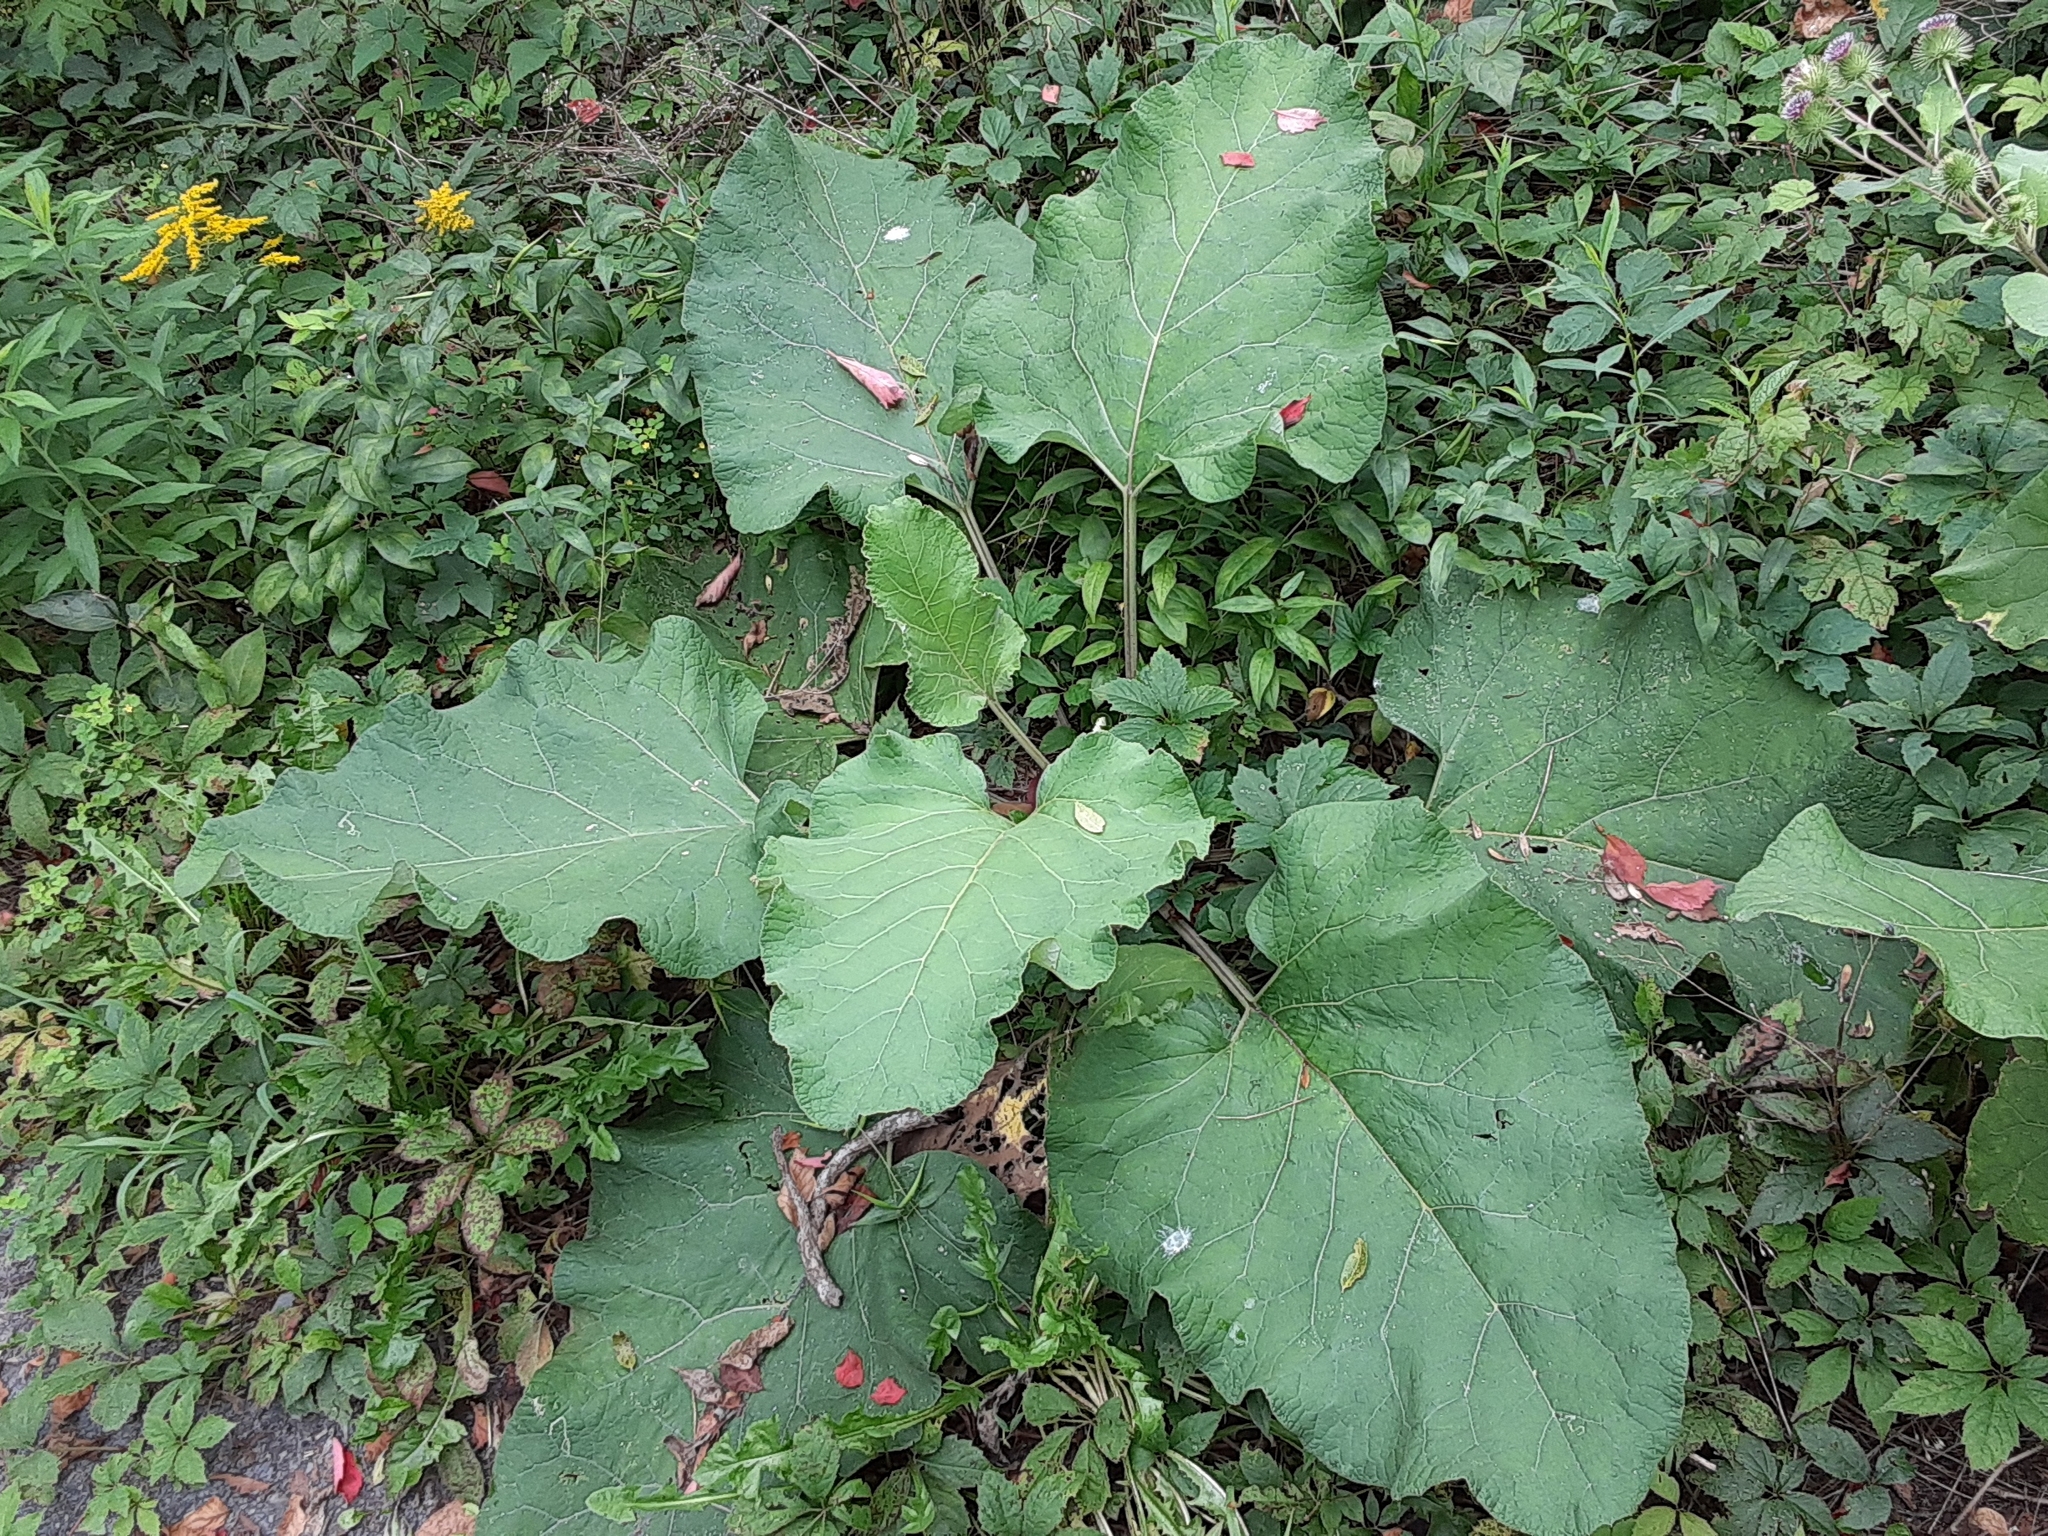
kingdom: Plantae
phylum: Tracheophyta
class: Magnoliopsida
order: Asterales
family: Asteraceae
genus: Arctium
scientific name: Arctium
